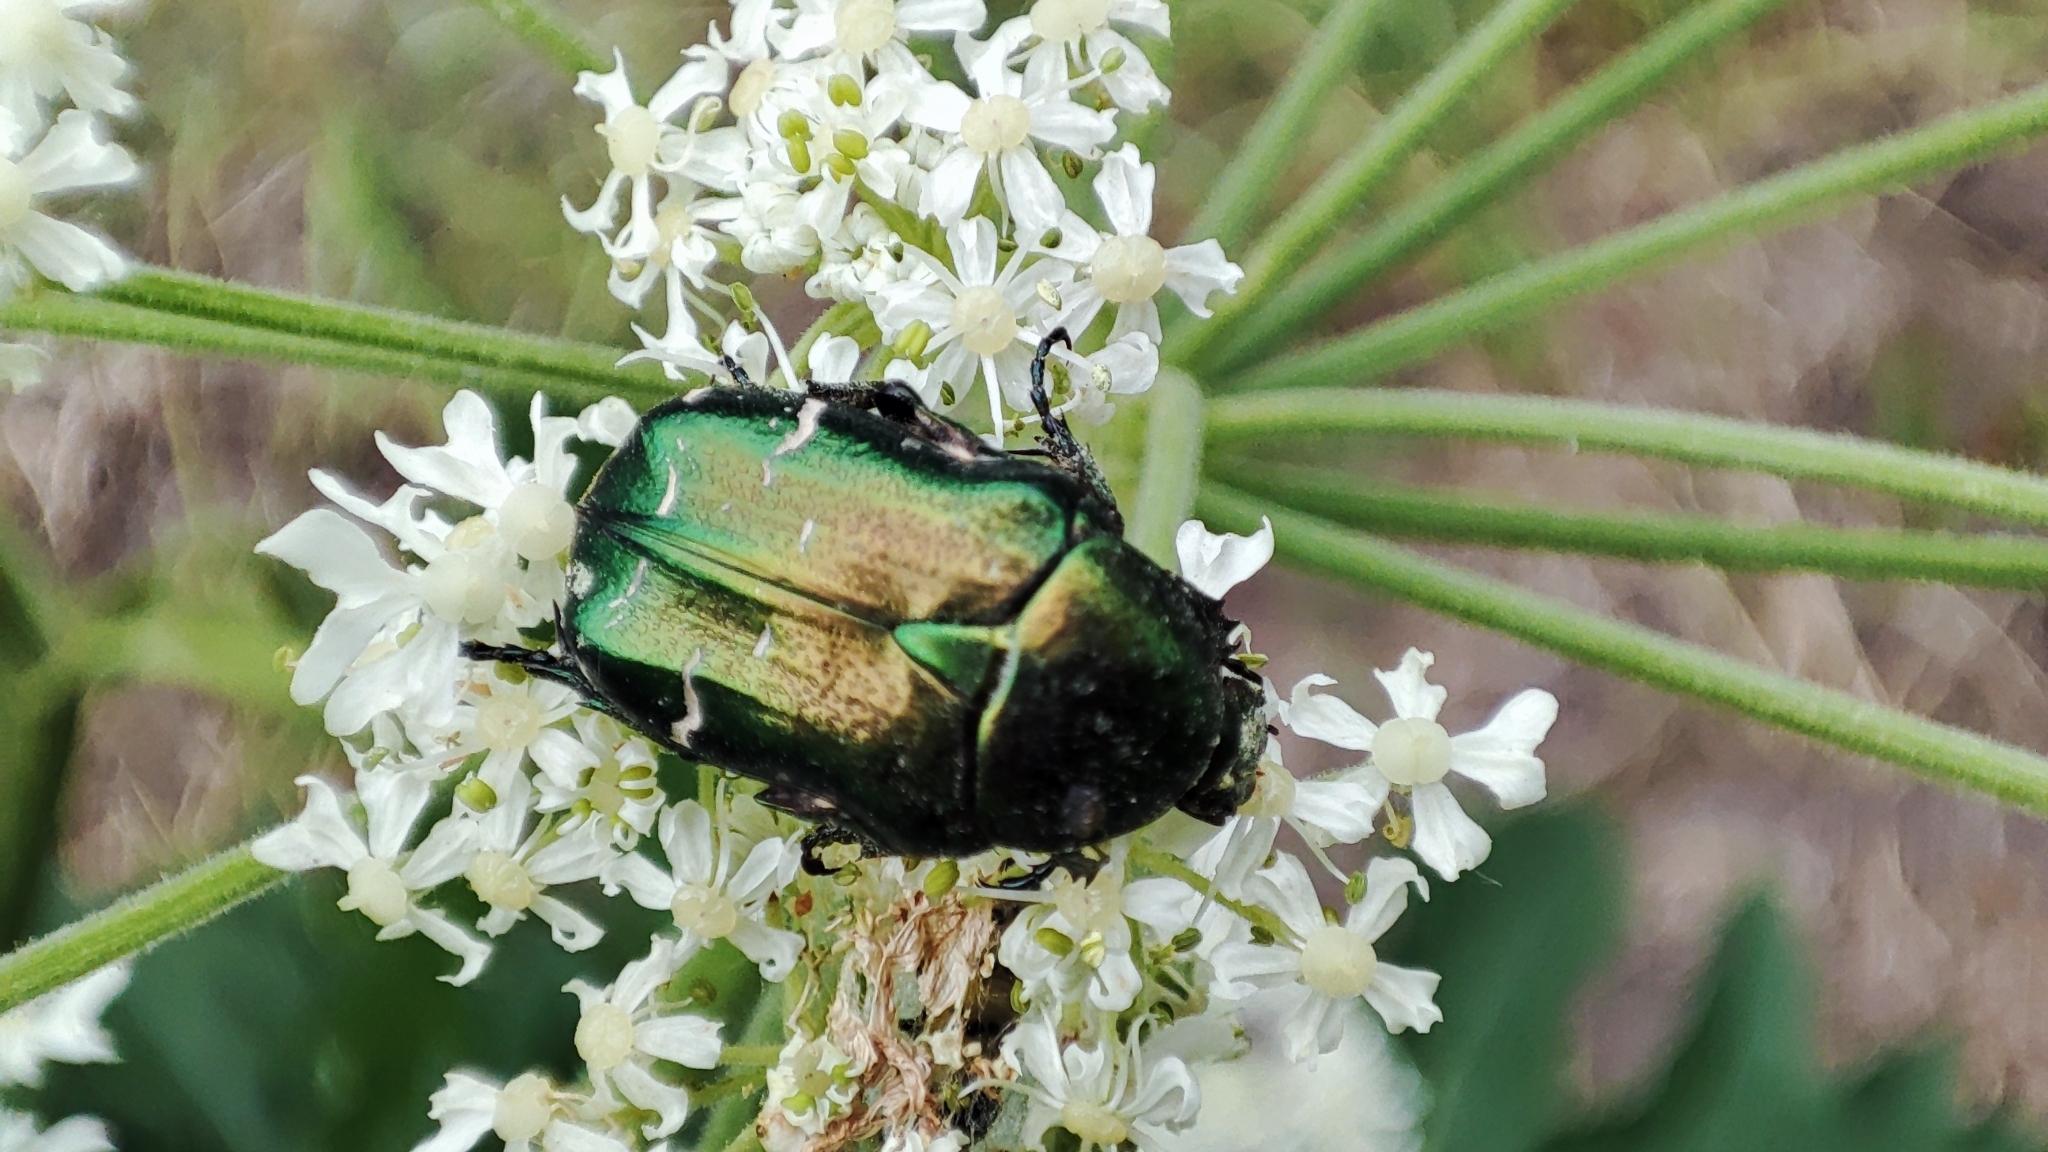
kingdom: Animalia
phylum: Arthropoda
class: Insecta
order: Coleoptera
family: Scarabaeidae
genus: Cetonia
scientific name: Cetonia aurata
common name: Rose chafer
